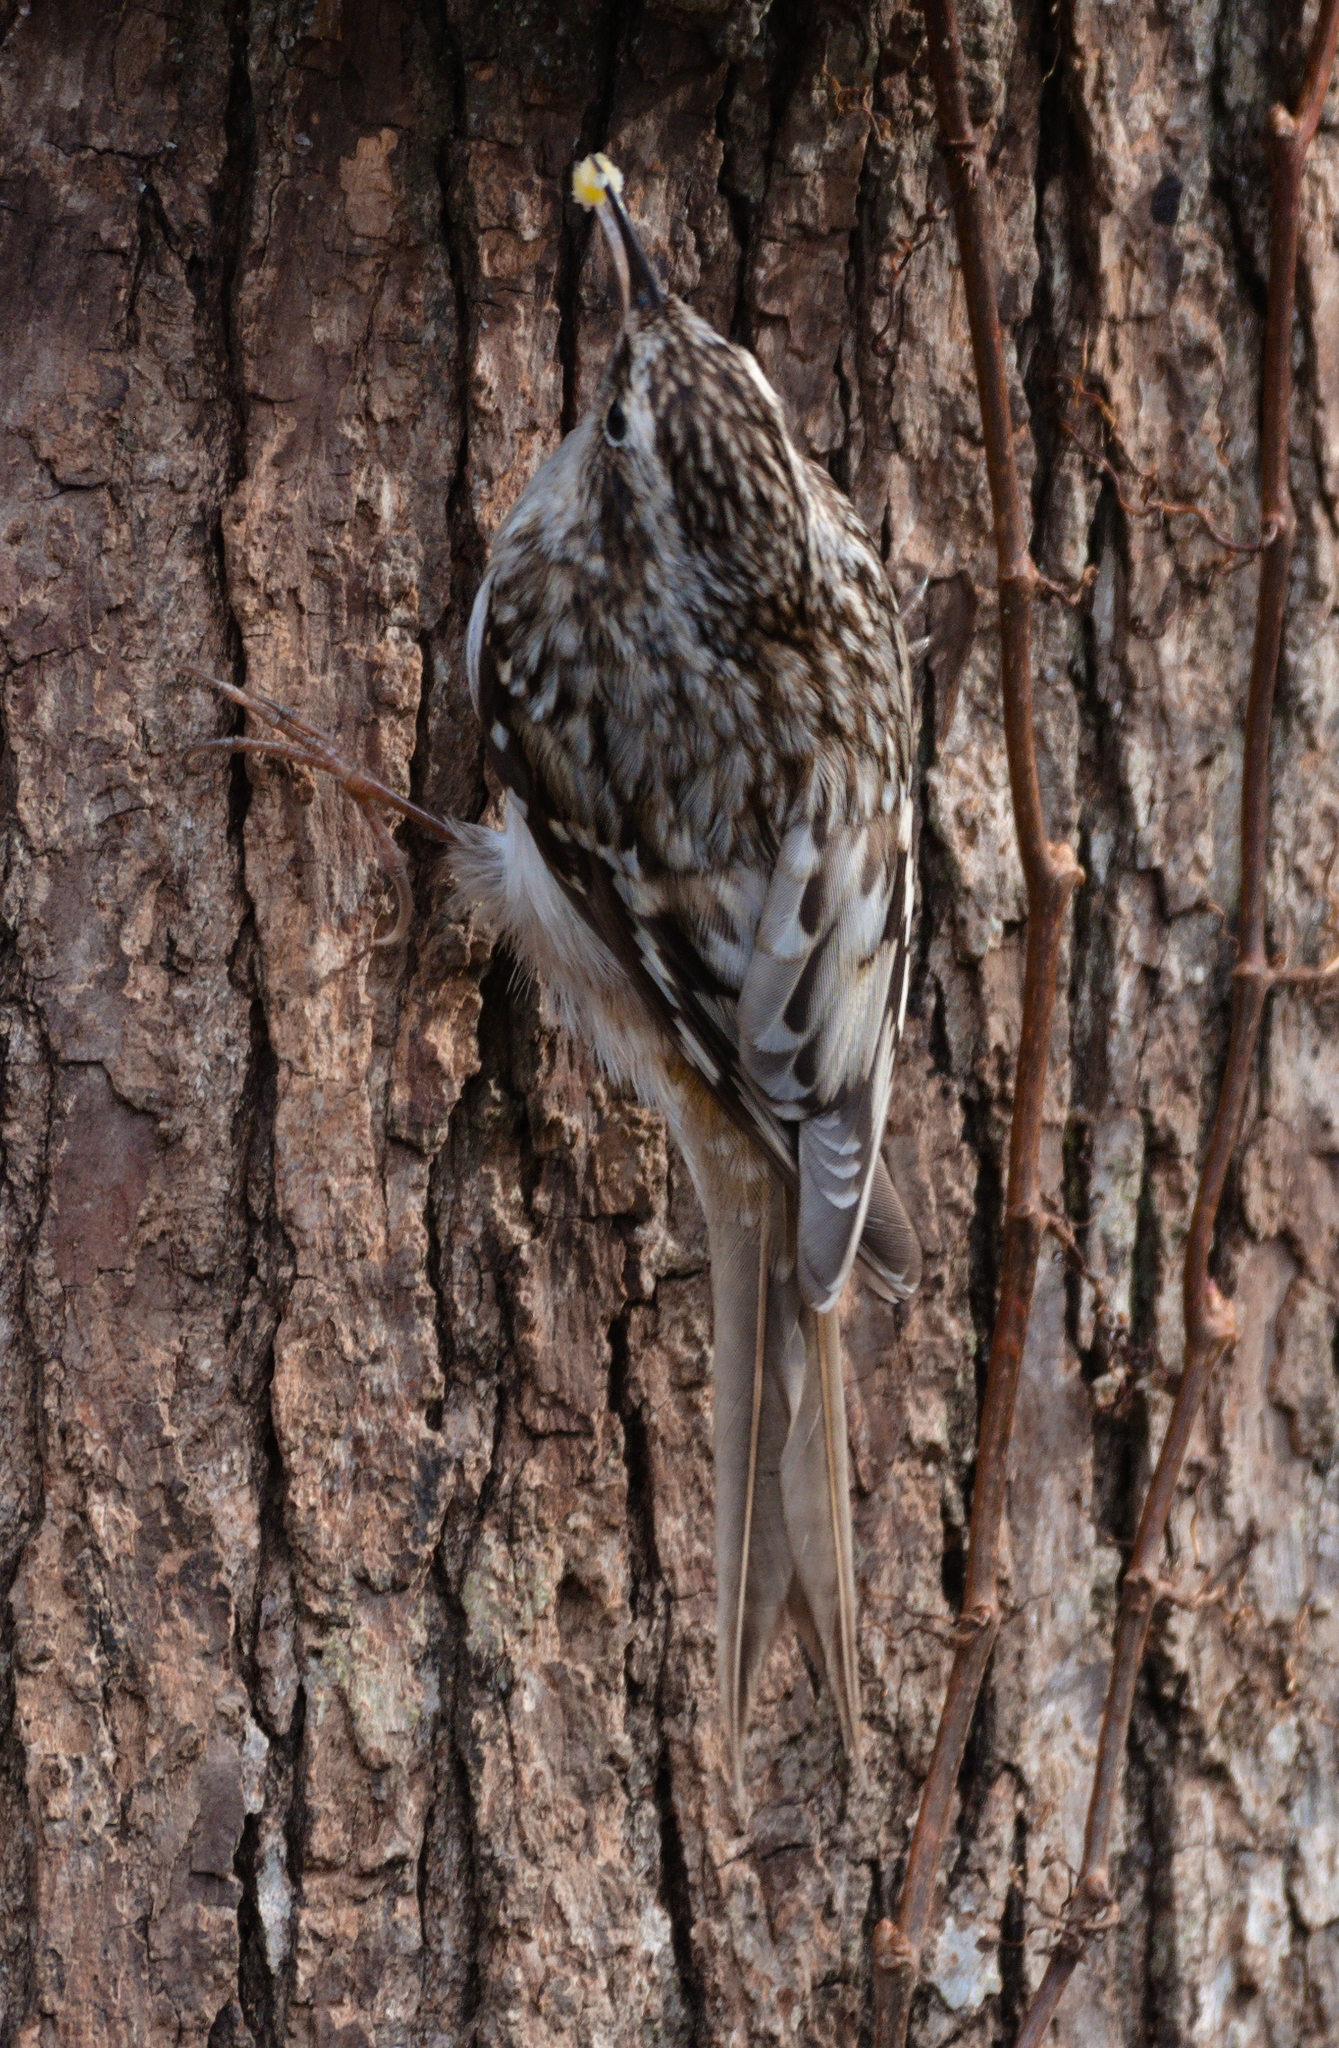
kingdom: Animalia
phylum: Chordata
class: Aves
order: Passeriformes
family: Certhiidae
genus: Certhia
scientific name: Certhia americana
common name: Brown creeper
